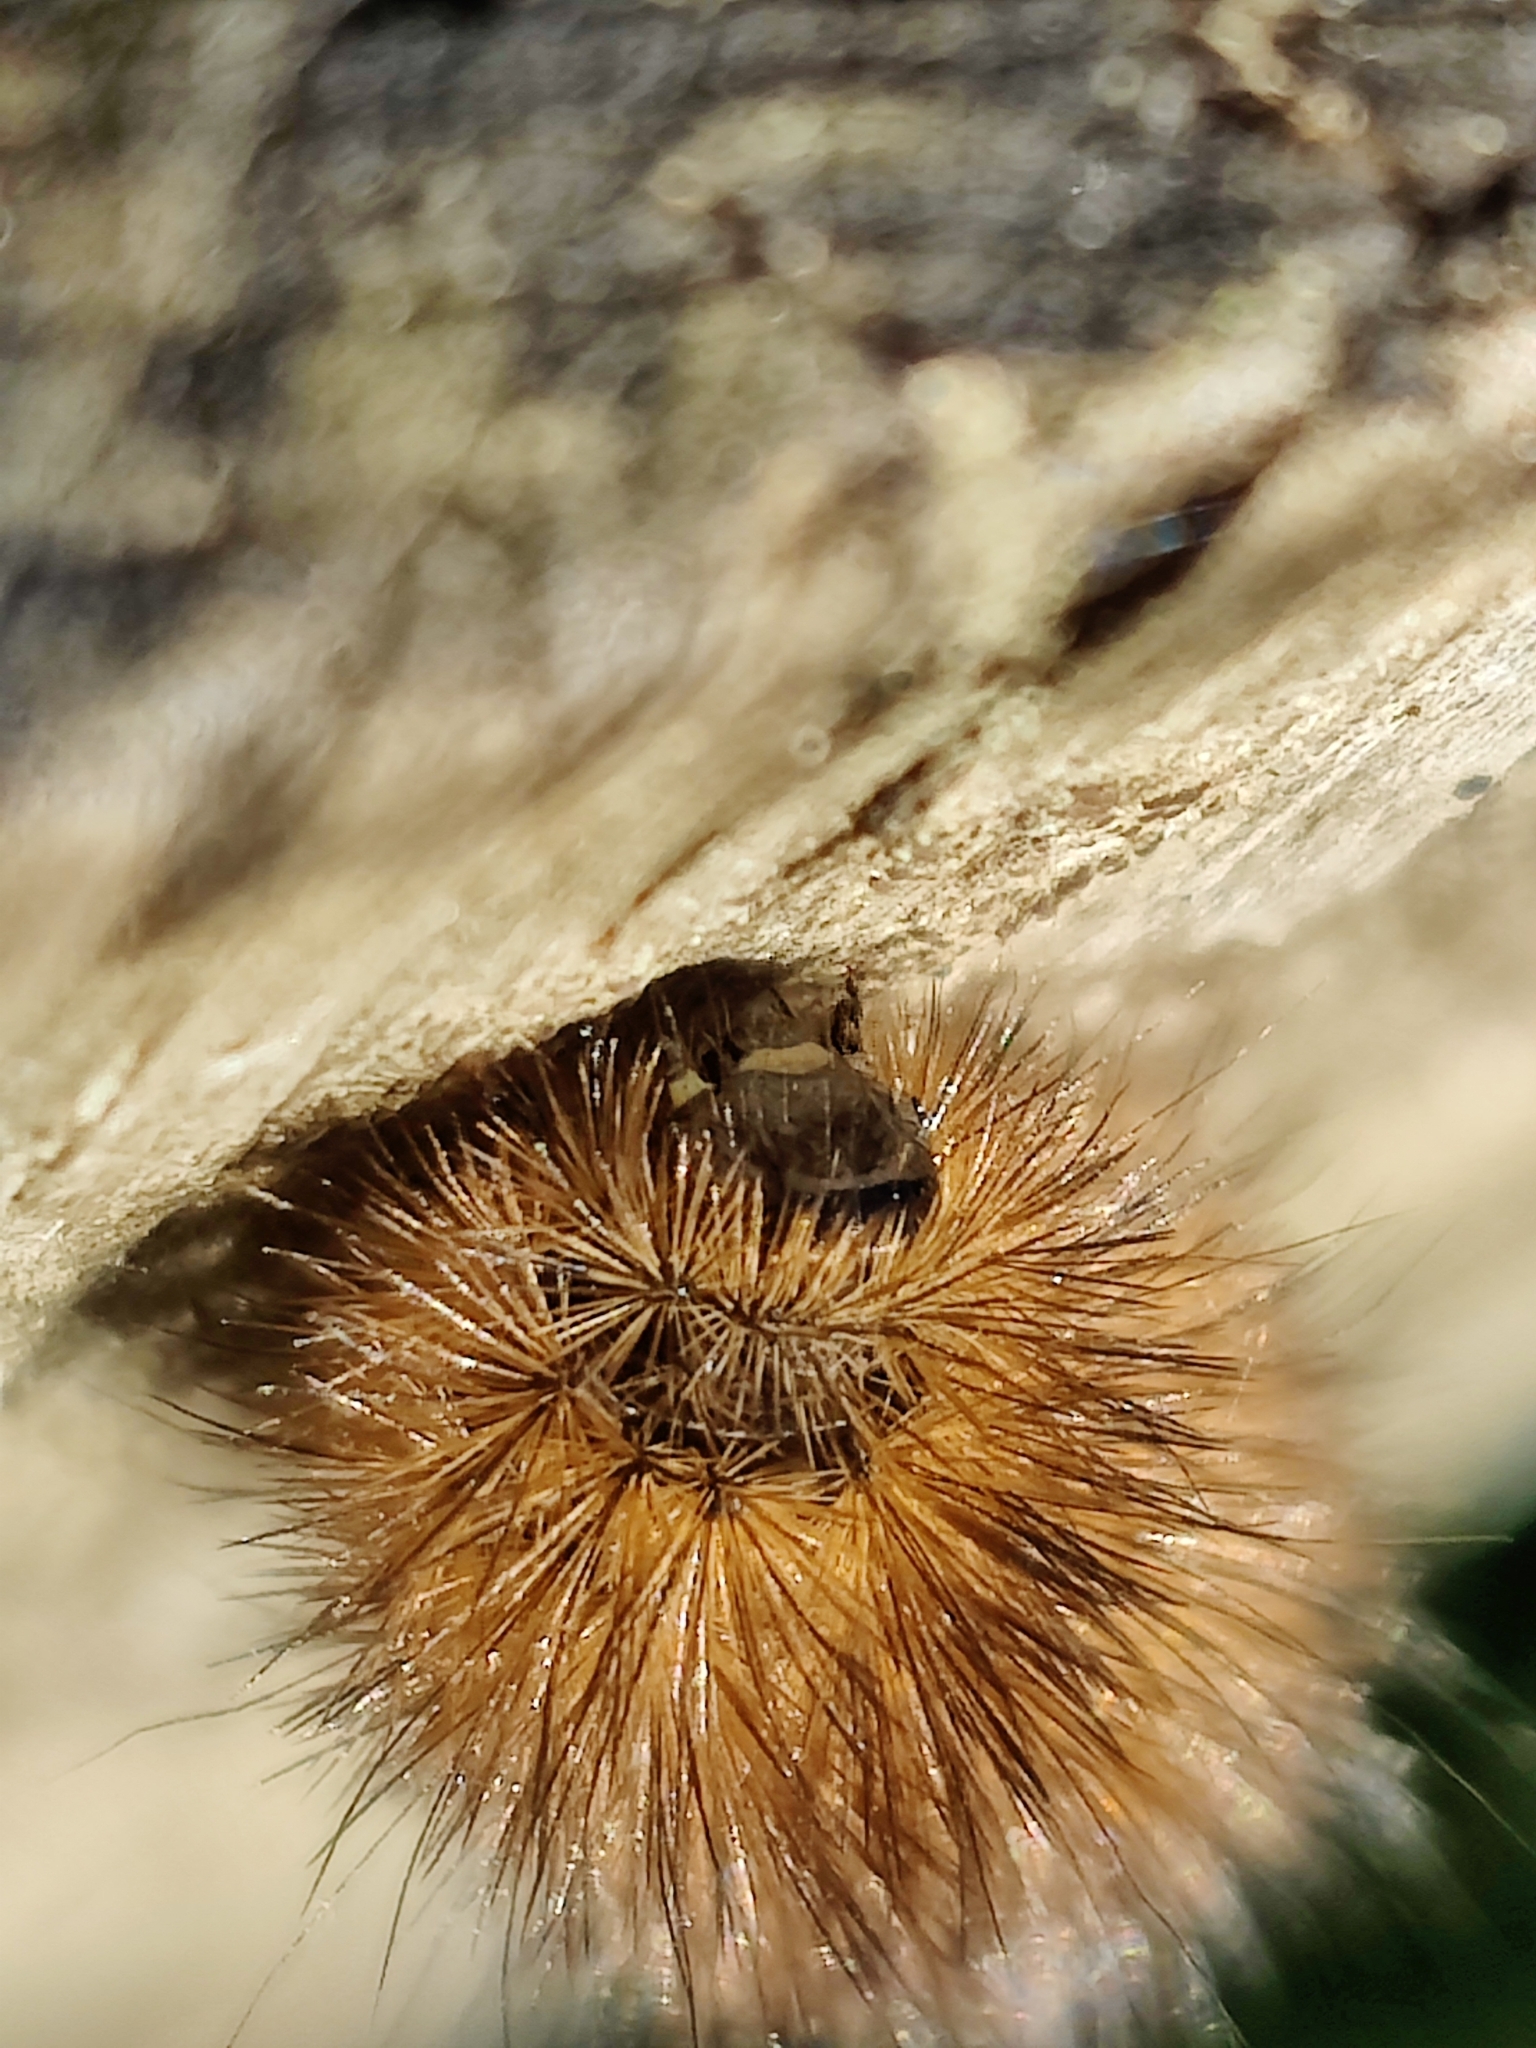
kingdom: Animalia
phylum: Arthropoda
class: Insecta
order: Lepidoptera
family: Erebidae
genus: Phragmatobia
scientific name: Phragmatobia fuliginosa
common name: Ruby tiger
